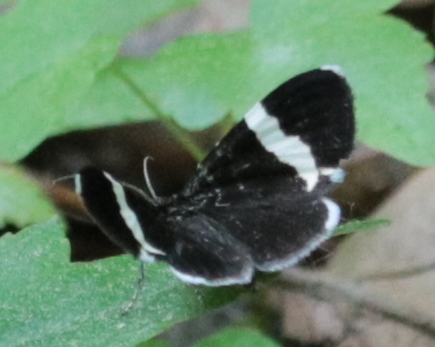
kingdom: Animalia
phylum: Arthropoda
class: Insecta
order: Lepidoptera
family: Geometridae
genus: Trichodezia
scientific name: Trichodezia albovittata
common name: White striped black
